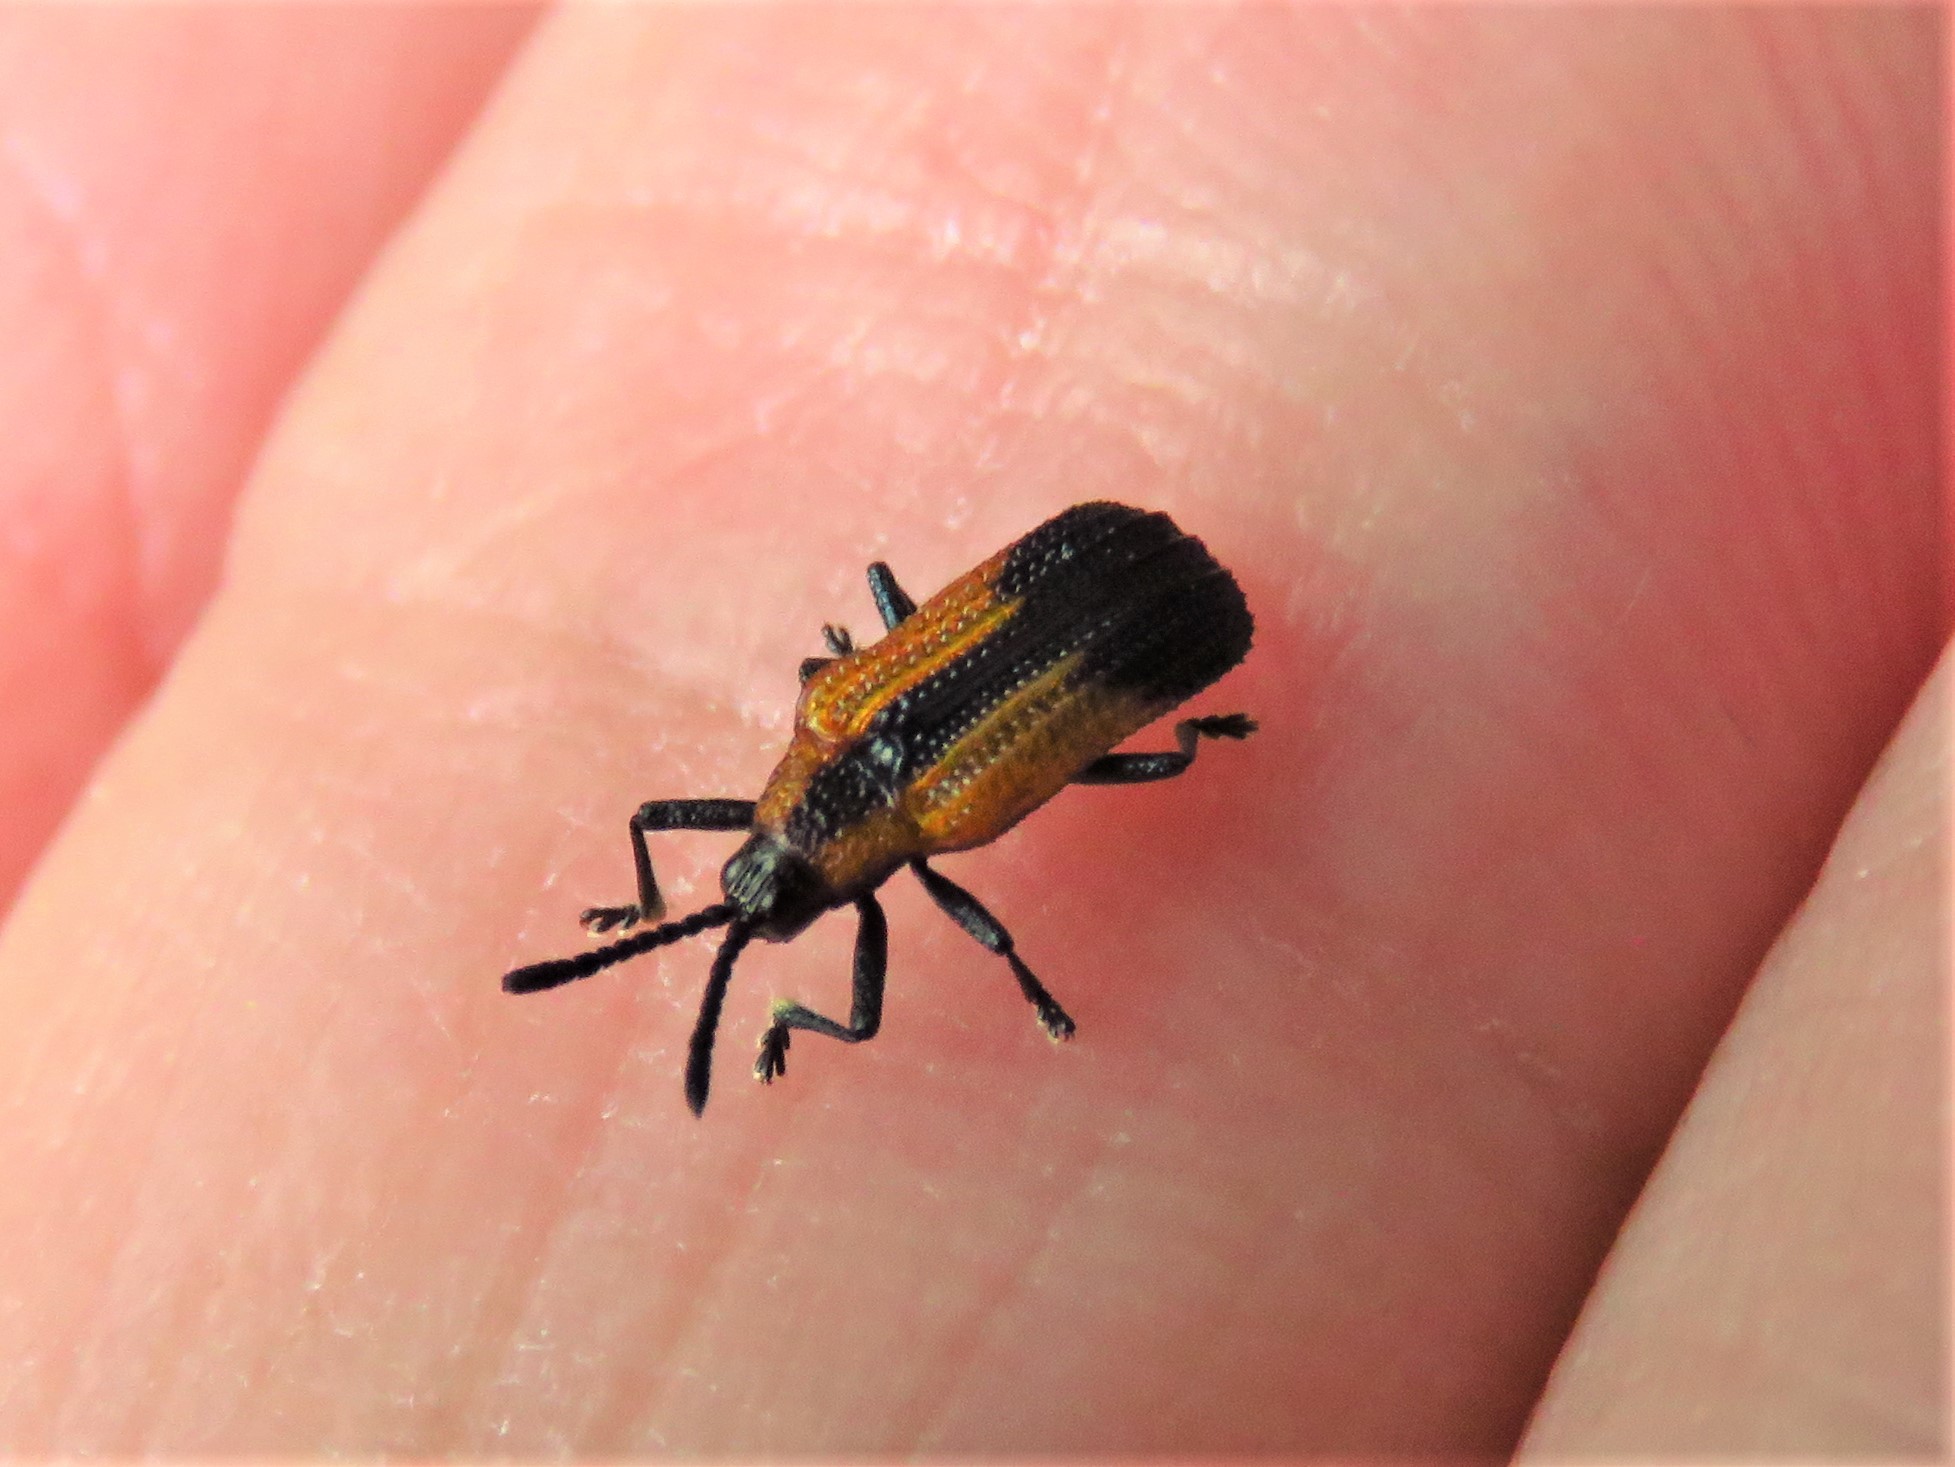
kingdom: Animalia
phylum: Arthropoda
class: Insecta
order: Coleoptera
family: Chrysomelidae
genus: Pentispa
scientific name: Pentispa melanura
